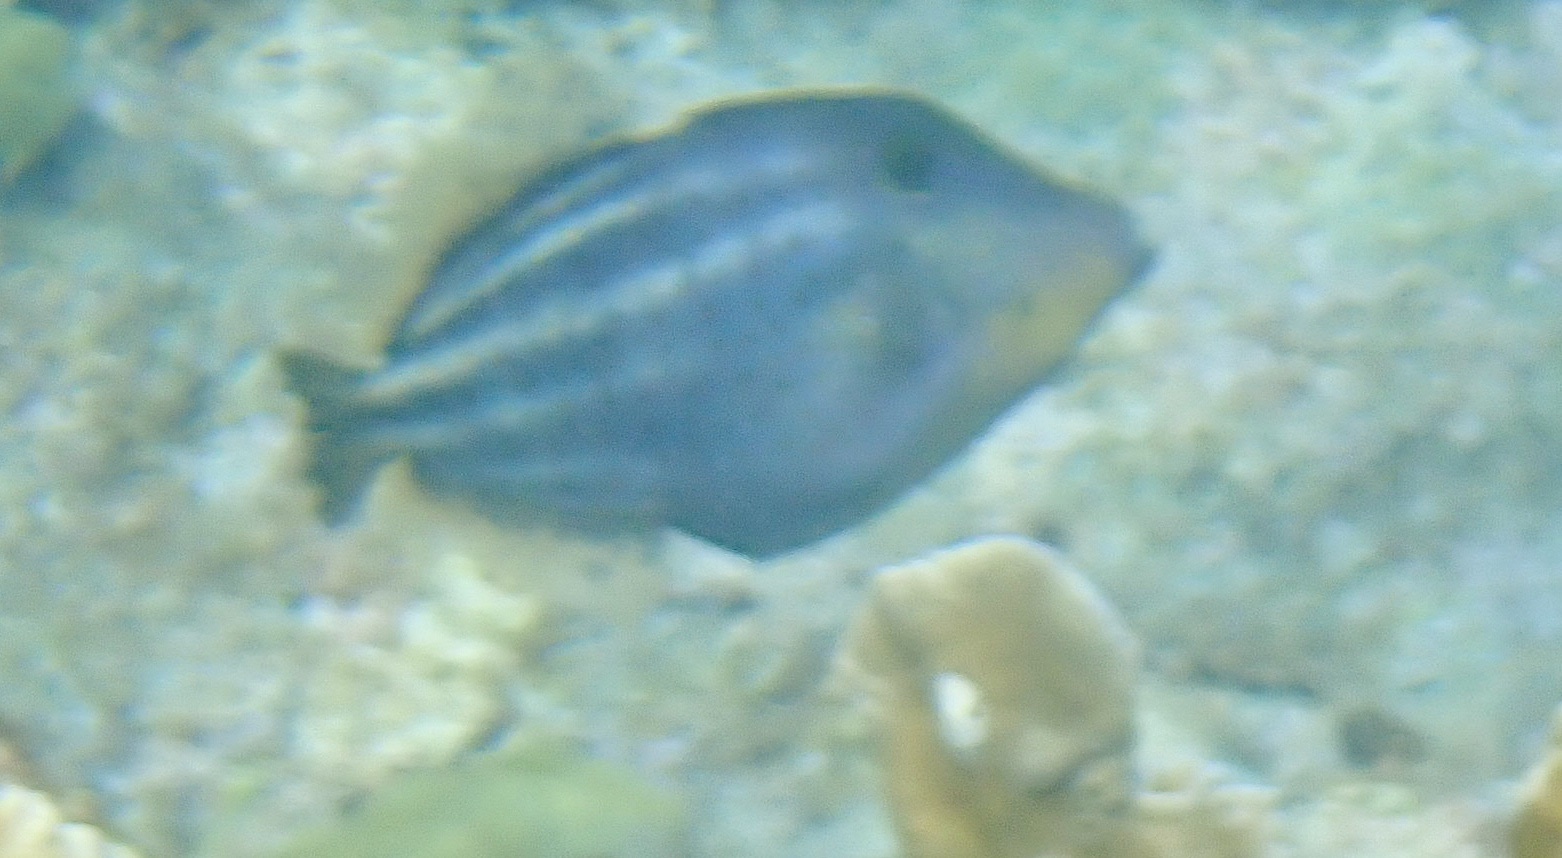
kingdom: Animalia
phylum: Chordata
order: Tetraodontiformes
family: Monacanthidae
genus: Cantherhines
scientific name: Cantherhines pullus
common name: Orangespotted filefish
